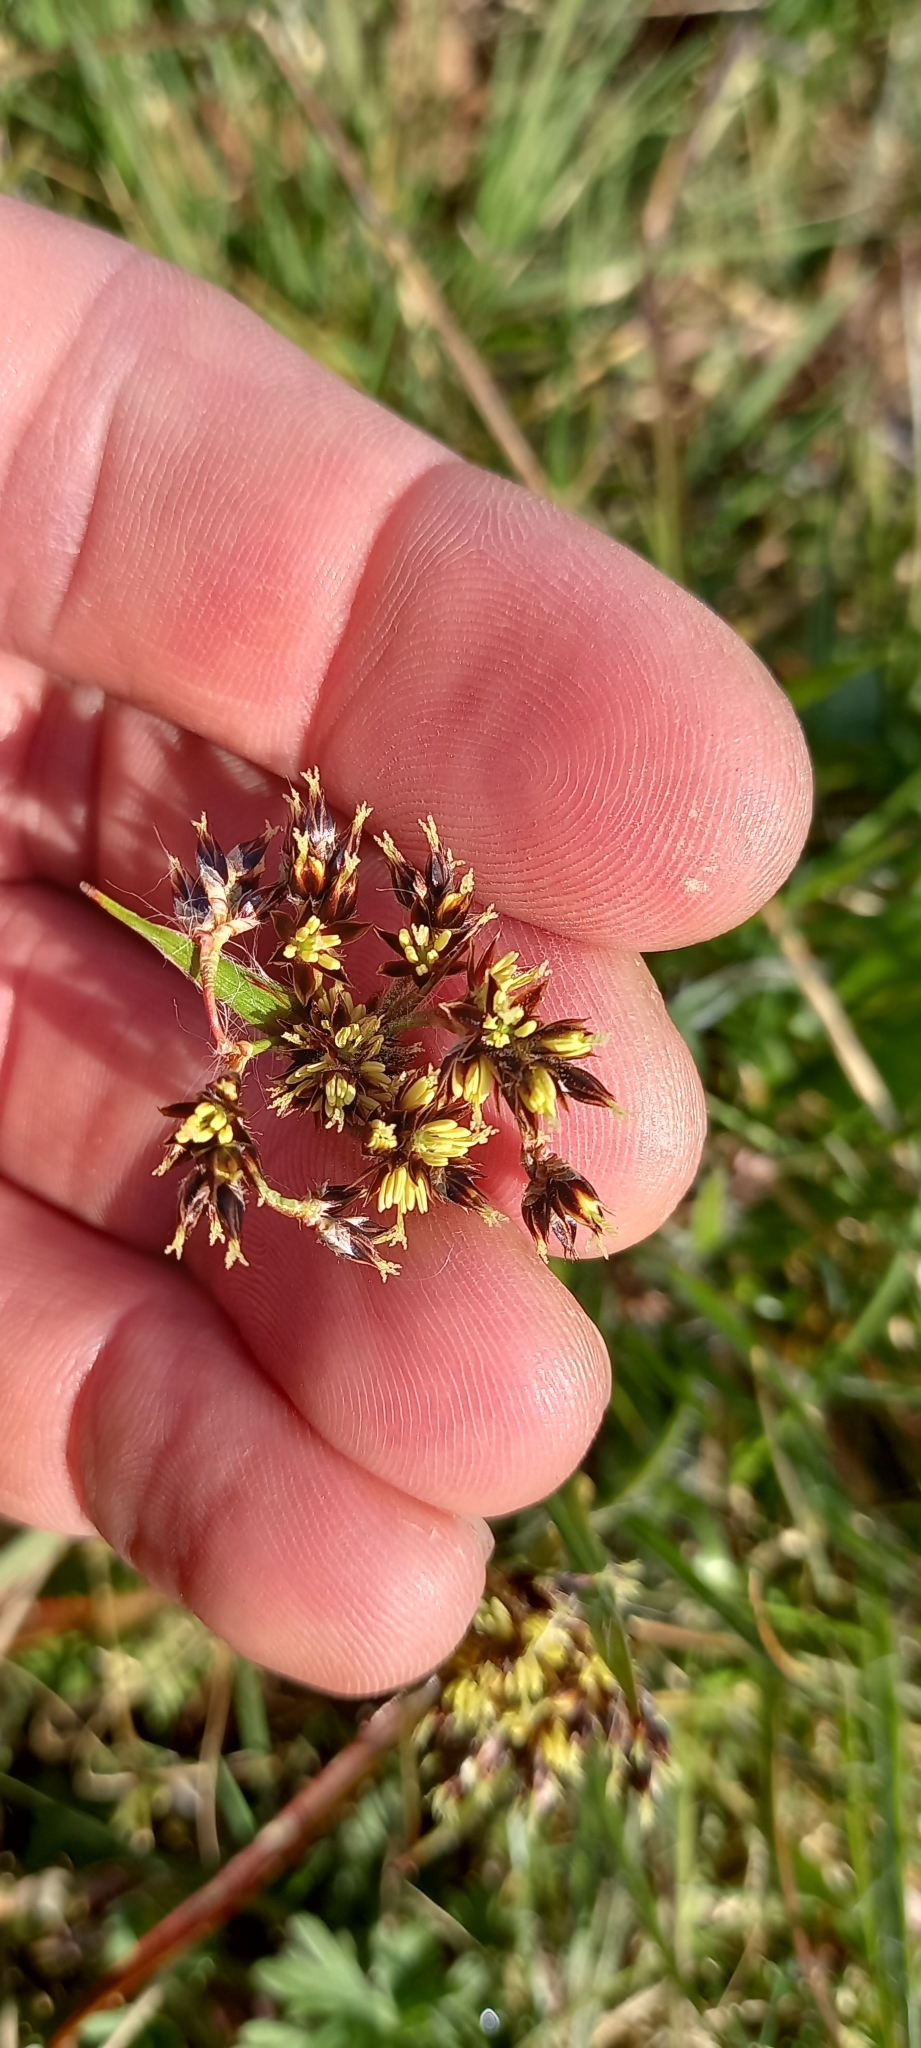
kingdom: Plantae
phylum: Tracheophyta
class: Liliopsida
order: Poales
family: Juncaceae
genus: Luzula
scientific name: Luzula campestris
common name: Field wood-rush
